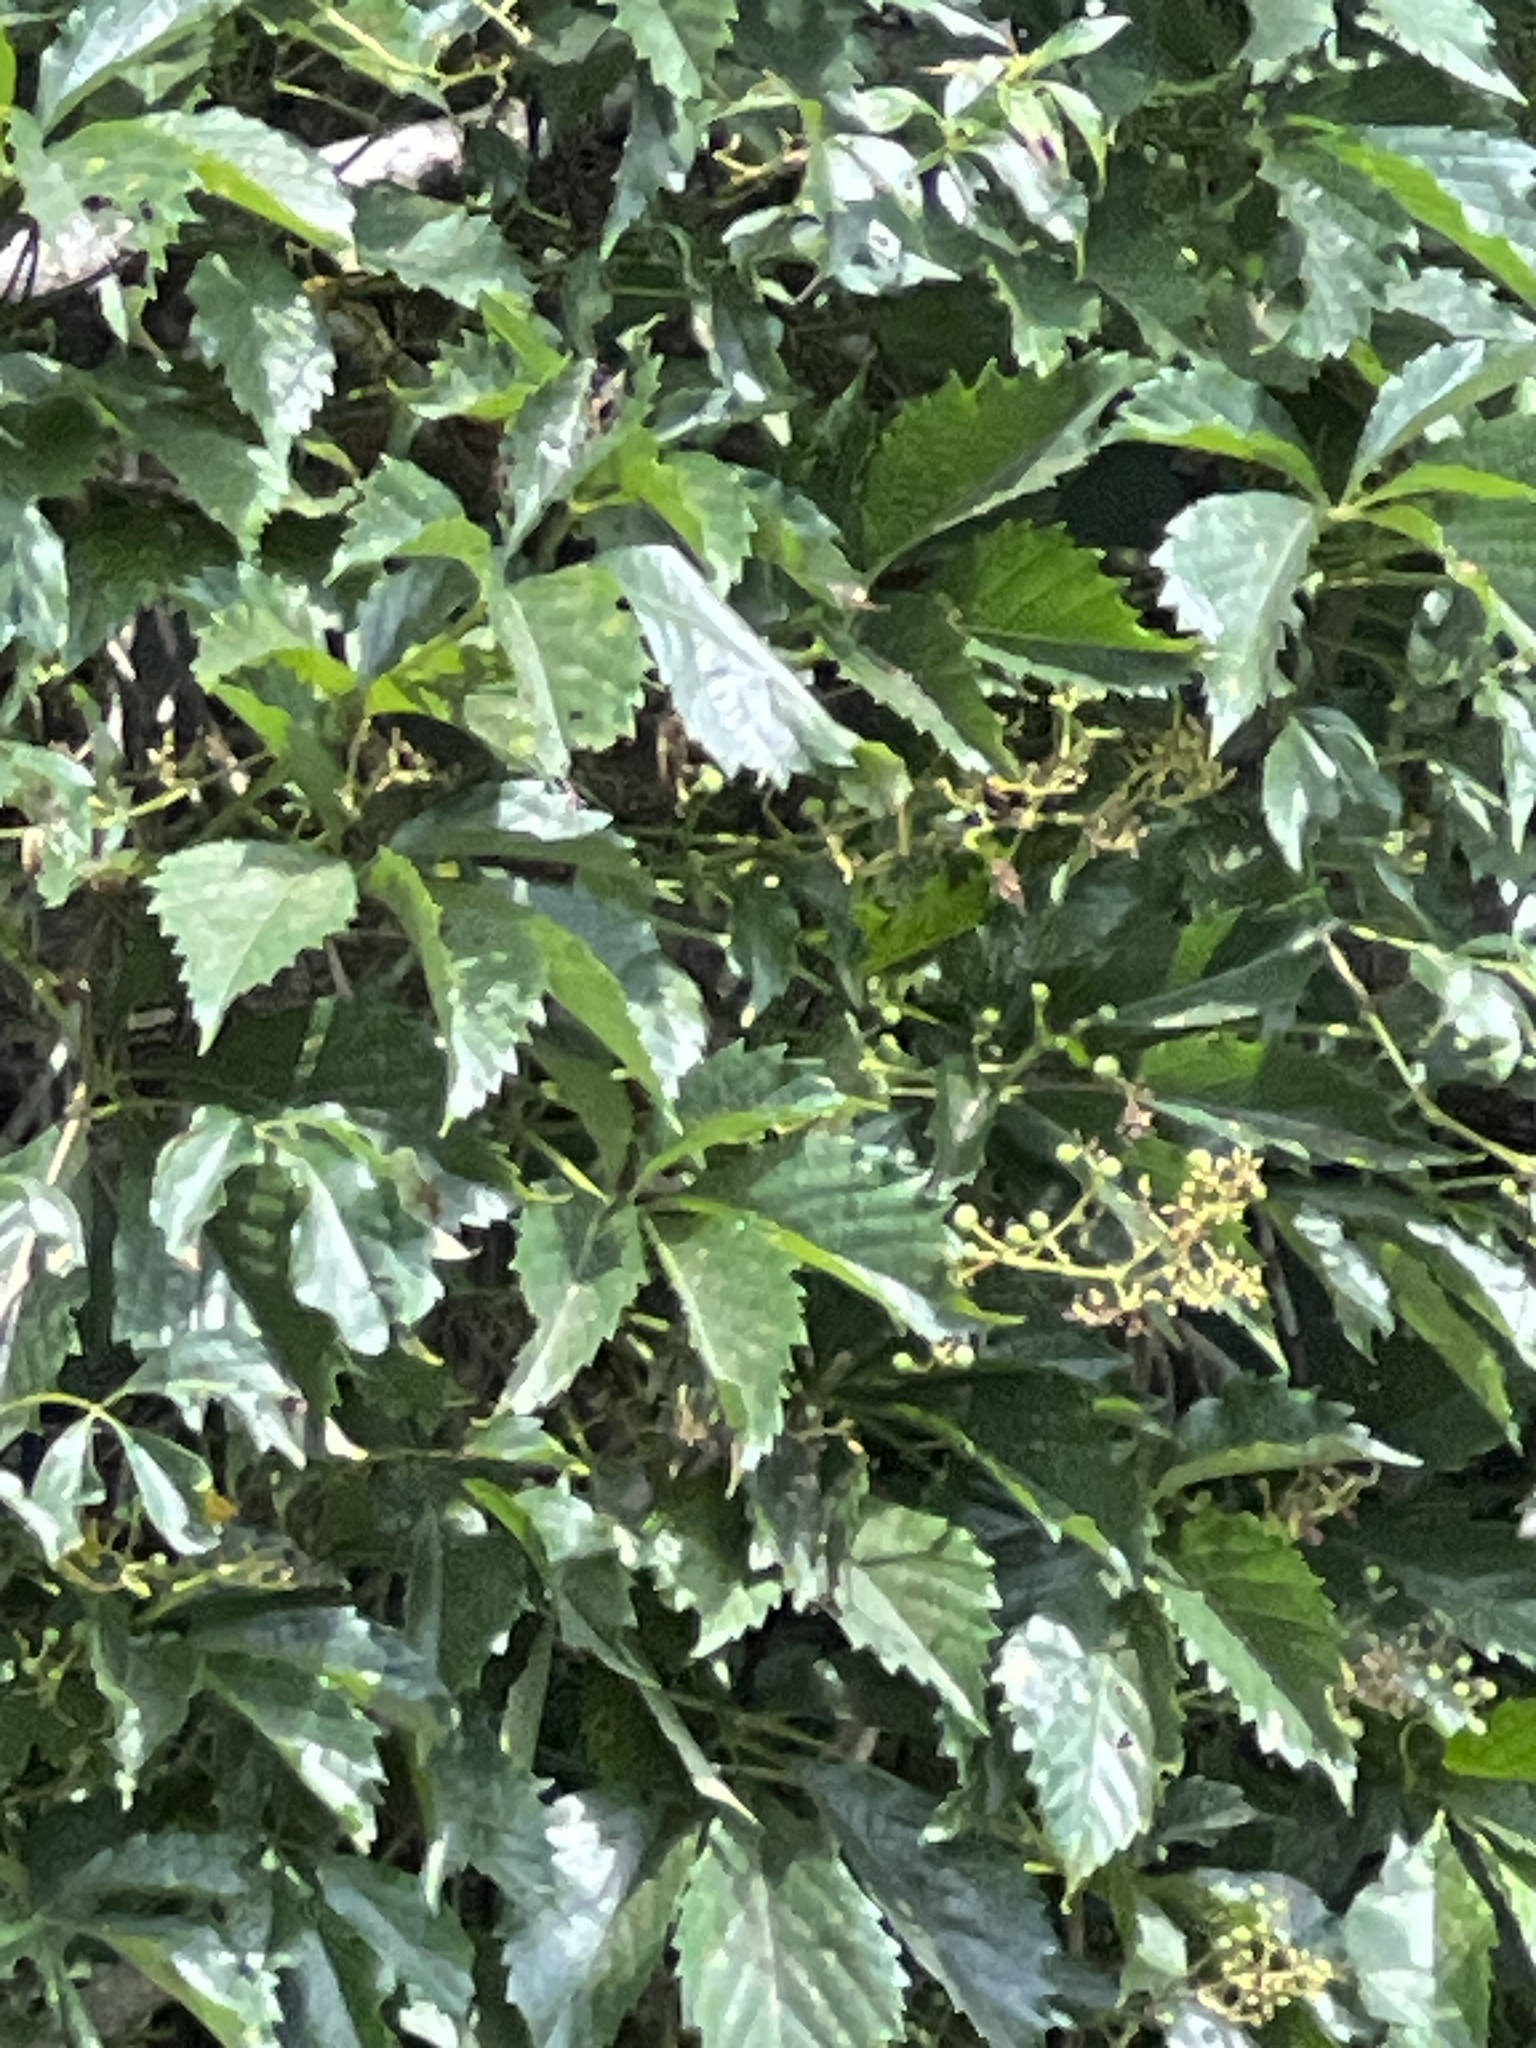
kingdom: Plantae
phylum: Tracheophyta
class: Magnoliopsida
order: Vitales
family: Vitaceae
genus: Parthenocissus
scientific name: Parthenocissus inserta
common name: False virginia-creeper
